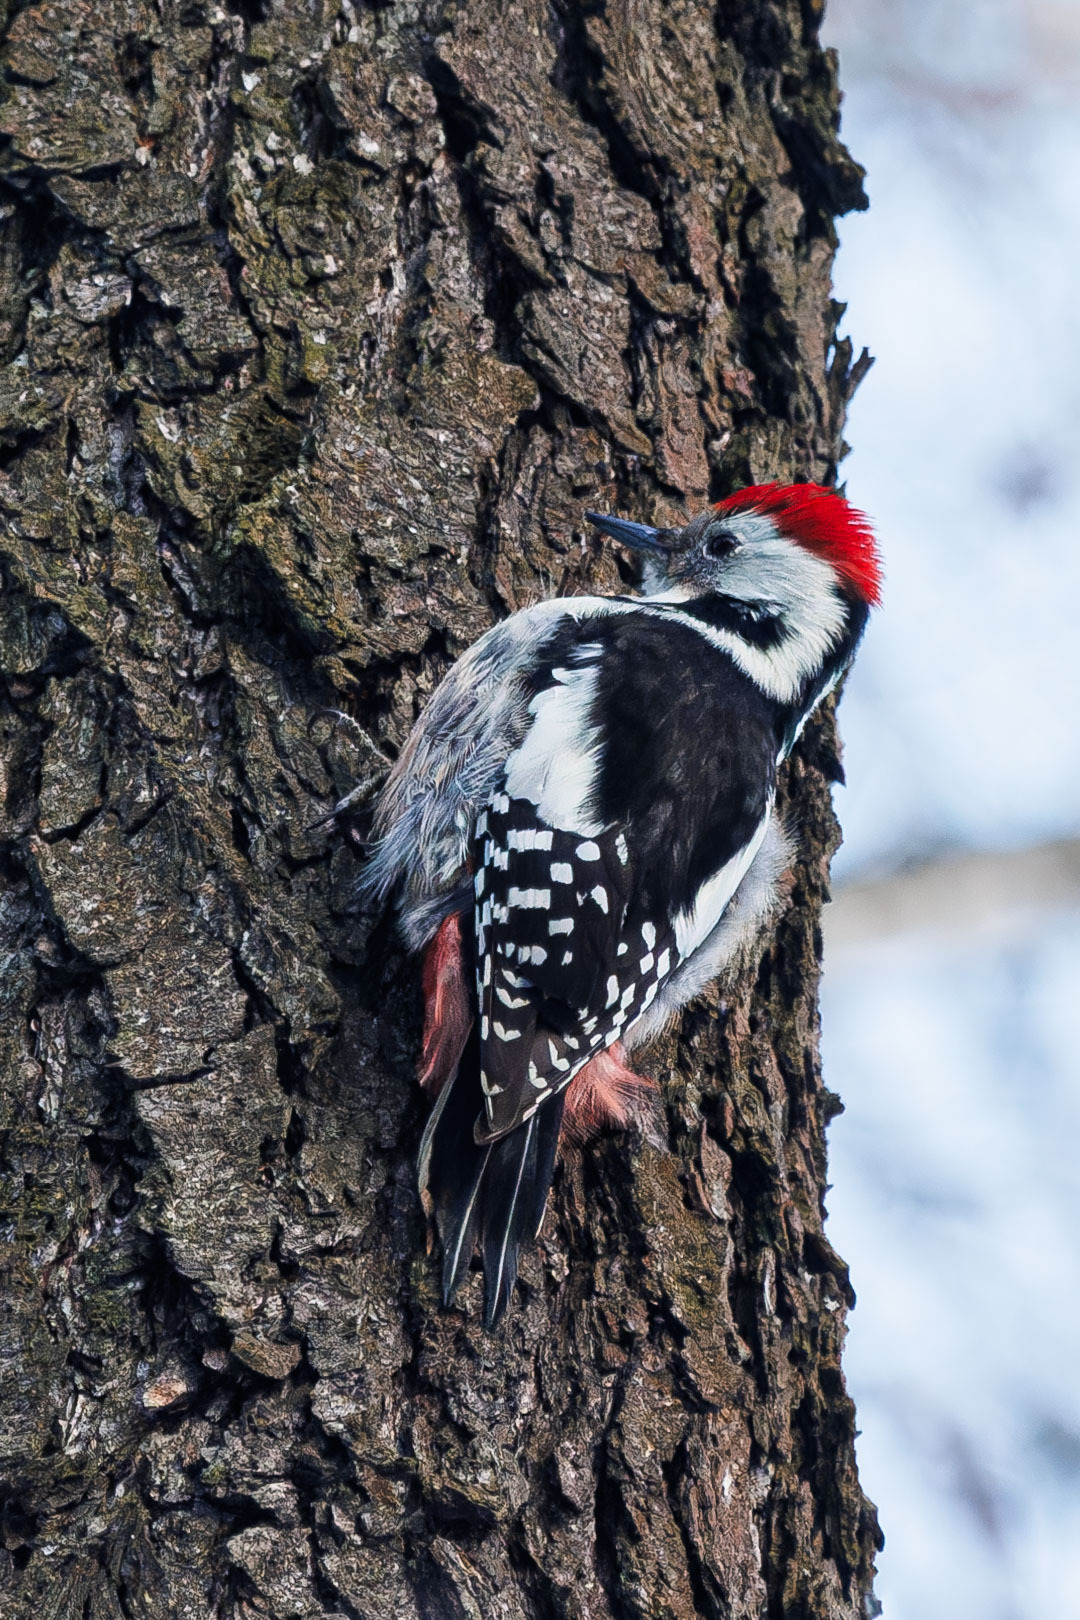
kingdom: Animalia
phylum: Chordata
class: Aves
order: Piciformes
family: Picidae
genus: Dendrocoptes
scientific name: Dendrocoptes medius
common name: Middle spotted woodpecker
